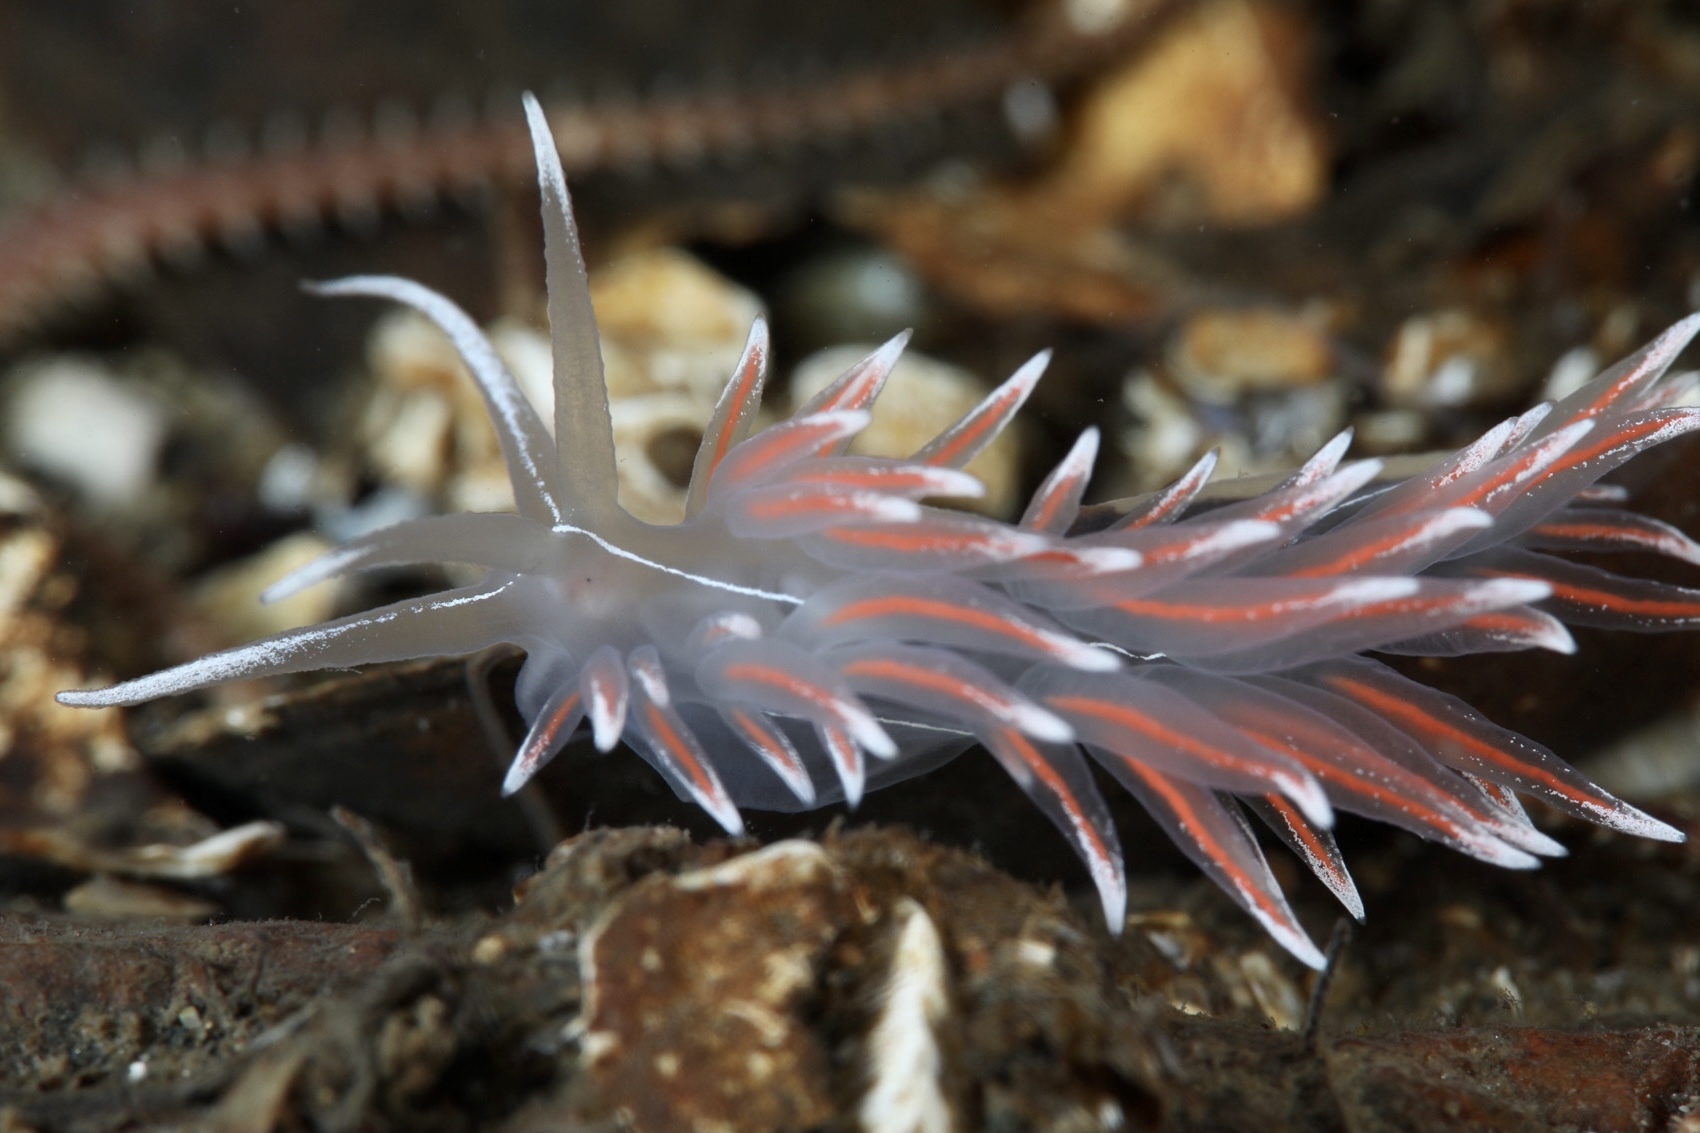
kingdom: Animalia
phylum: Mollusca
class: Gastropoda
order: Nudibranchia
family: Coryphellidae
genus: Coryphella
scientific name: Coryphella lineata
